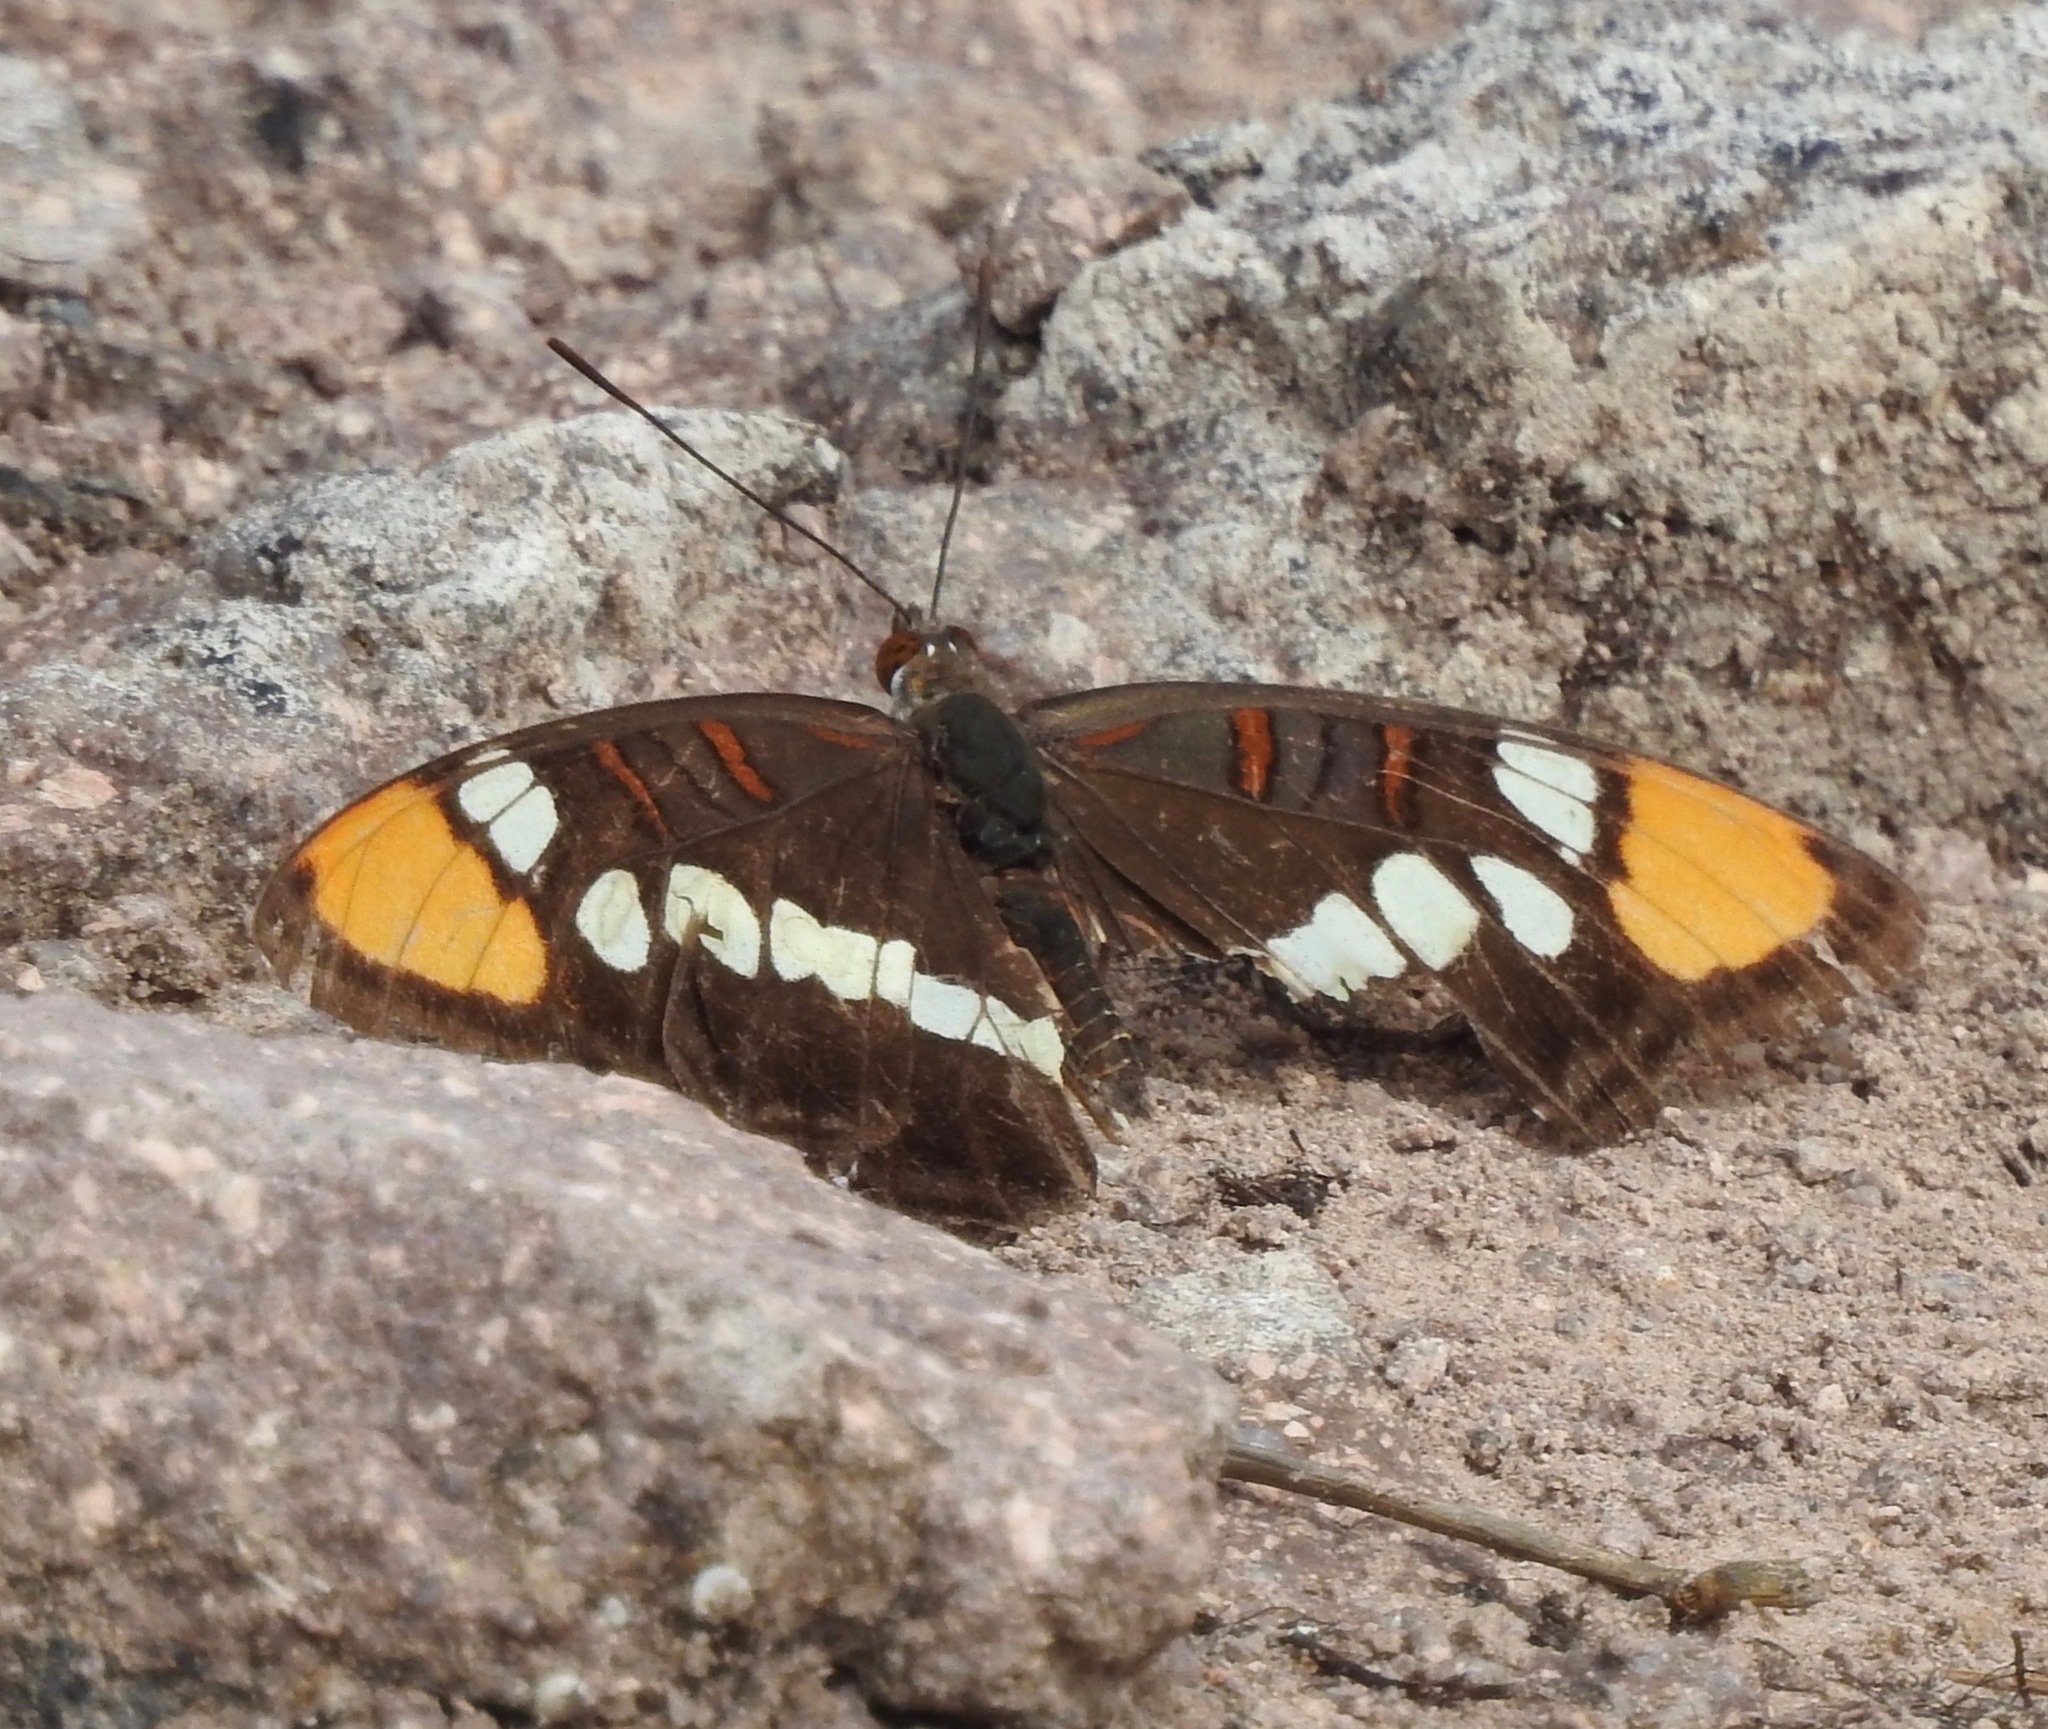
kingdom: Animalia
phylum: Arthropoda
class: Insecta
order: Lepidoptera
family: Nymphalidae
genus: Limenitis
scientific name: Limenitis bredowii
